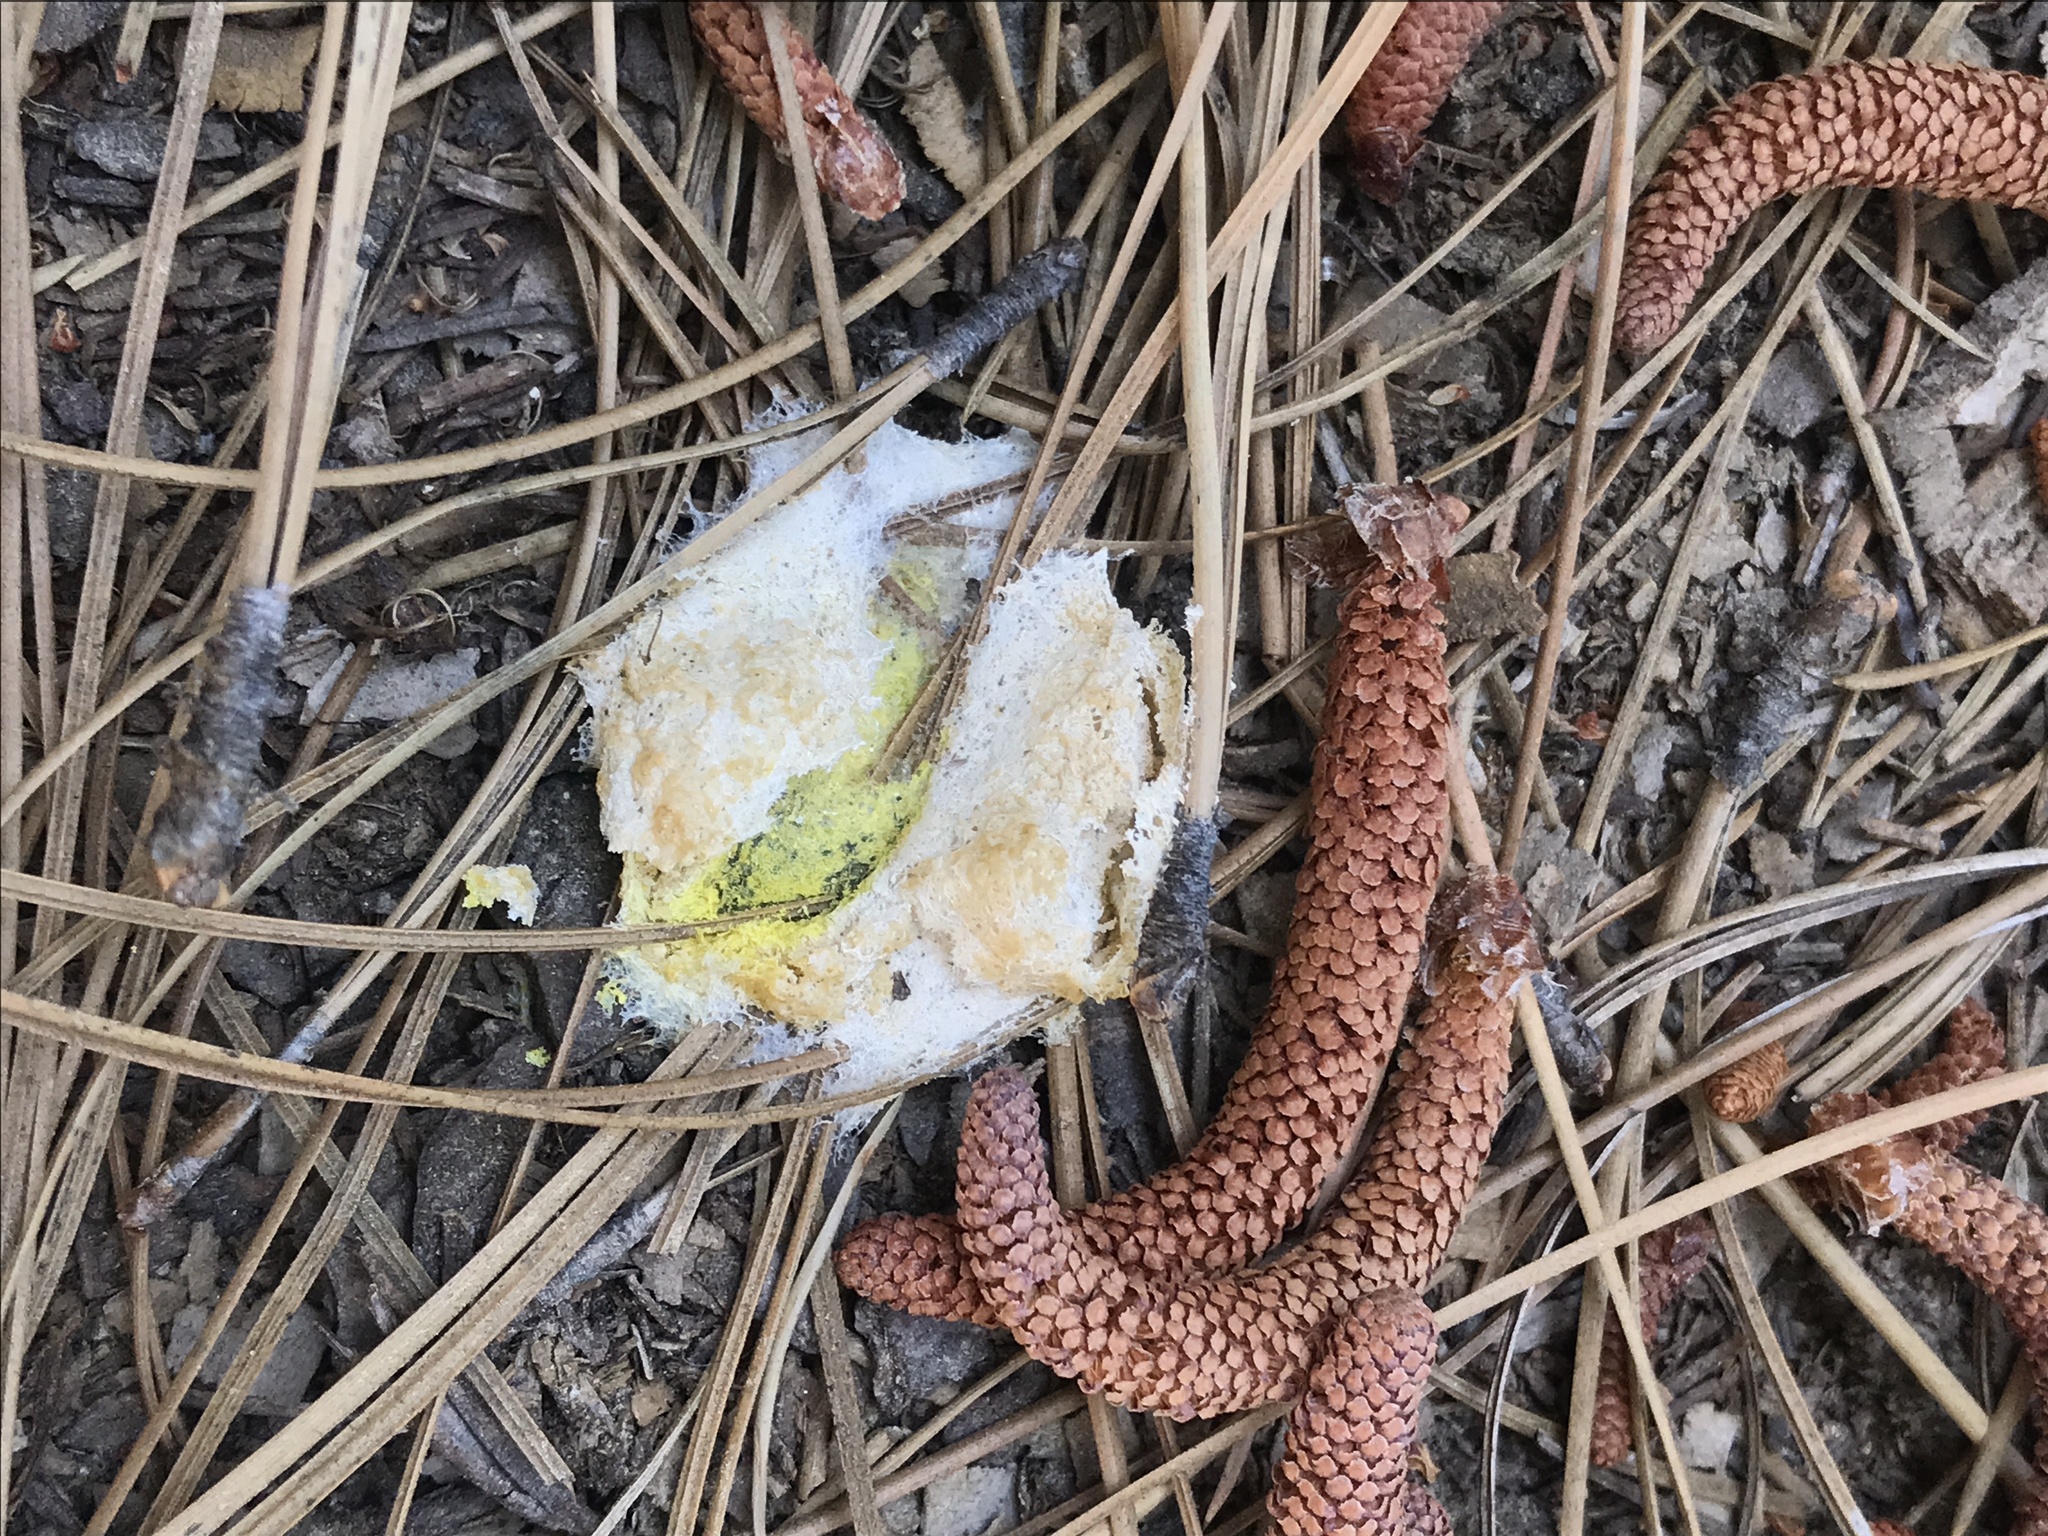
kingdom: Protozoa
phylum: Mycetozoa
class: Myxomycetes
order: Physarales
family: Physaraceae
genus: Fuligo
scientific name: Fuligo septica
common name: Dog vomit slime mold
